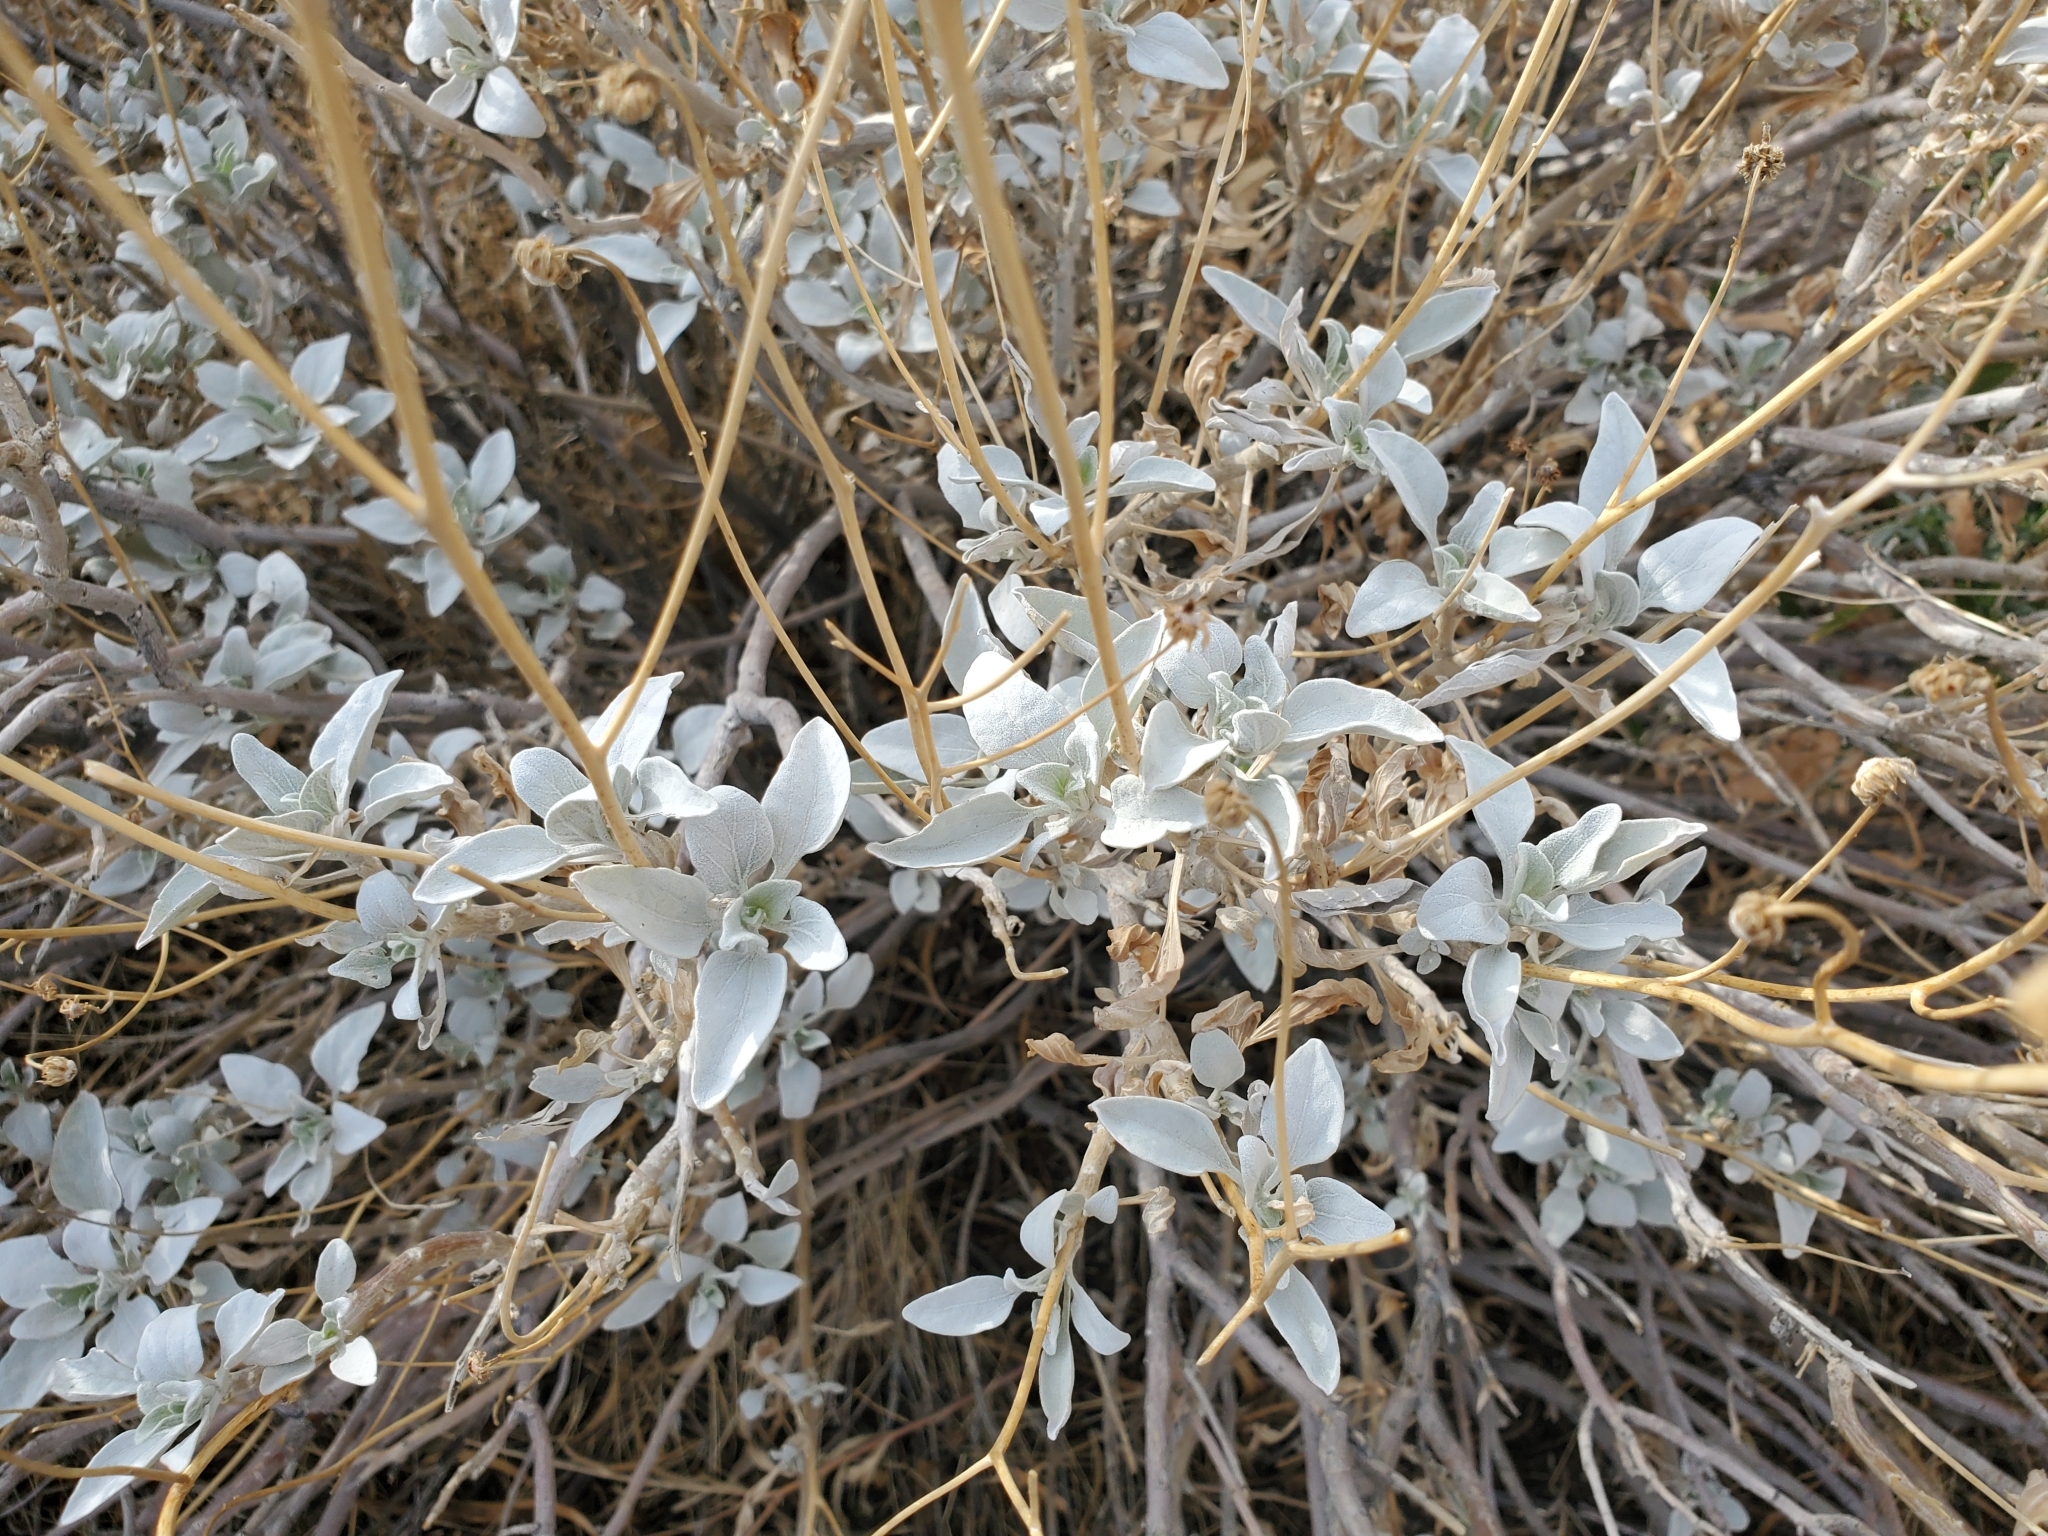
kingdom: Plantae
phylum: Tracheophyta
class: Magnoliopsida
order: Asterales
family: Asteraceae
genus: Encelia
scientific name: Encelia farinosa
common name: Brittlebush
